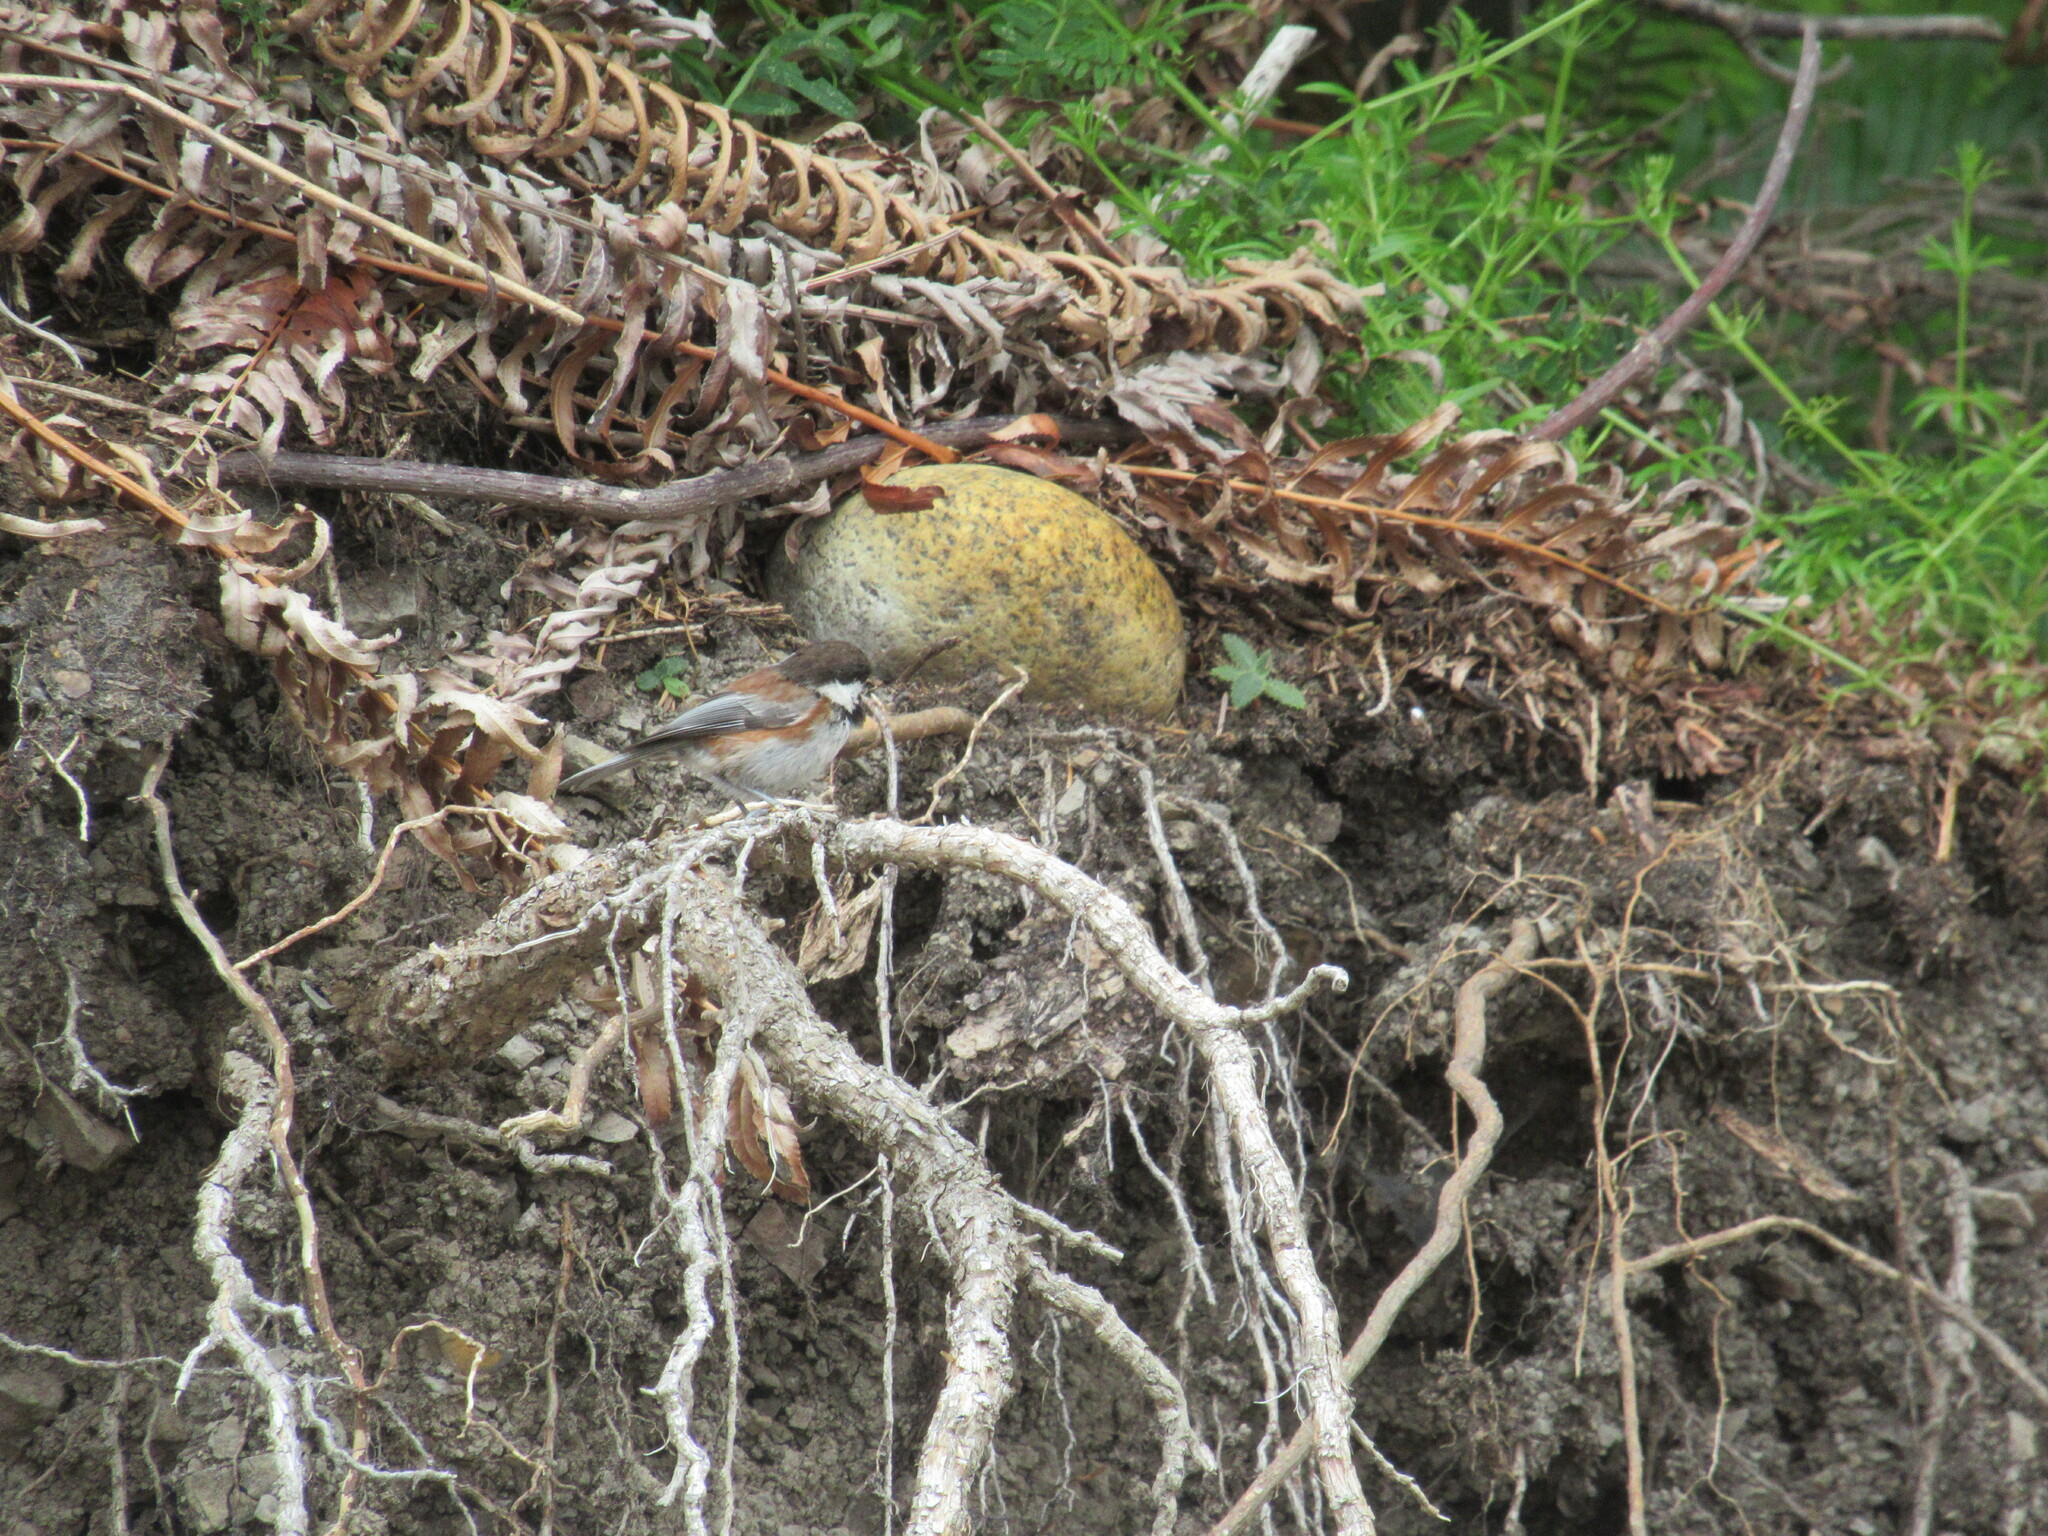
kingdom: Animalia
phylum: Chordata
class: Aves
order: Passeriformes
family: Paridae
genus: Poecile
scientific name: Poecile rufescens
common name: Chestnut-backed chickadee
